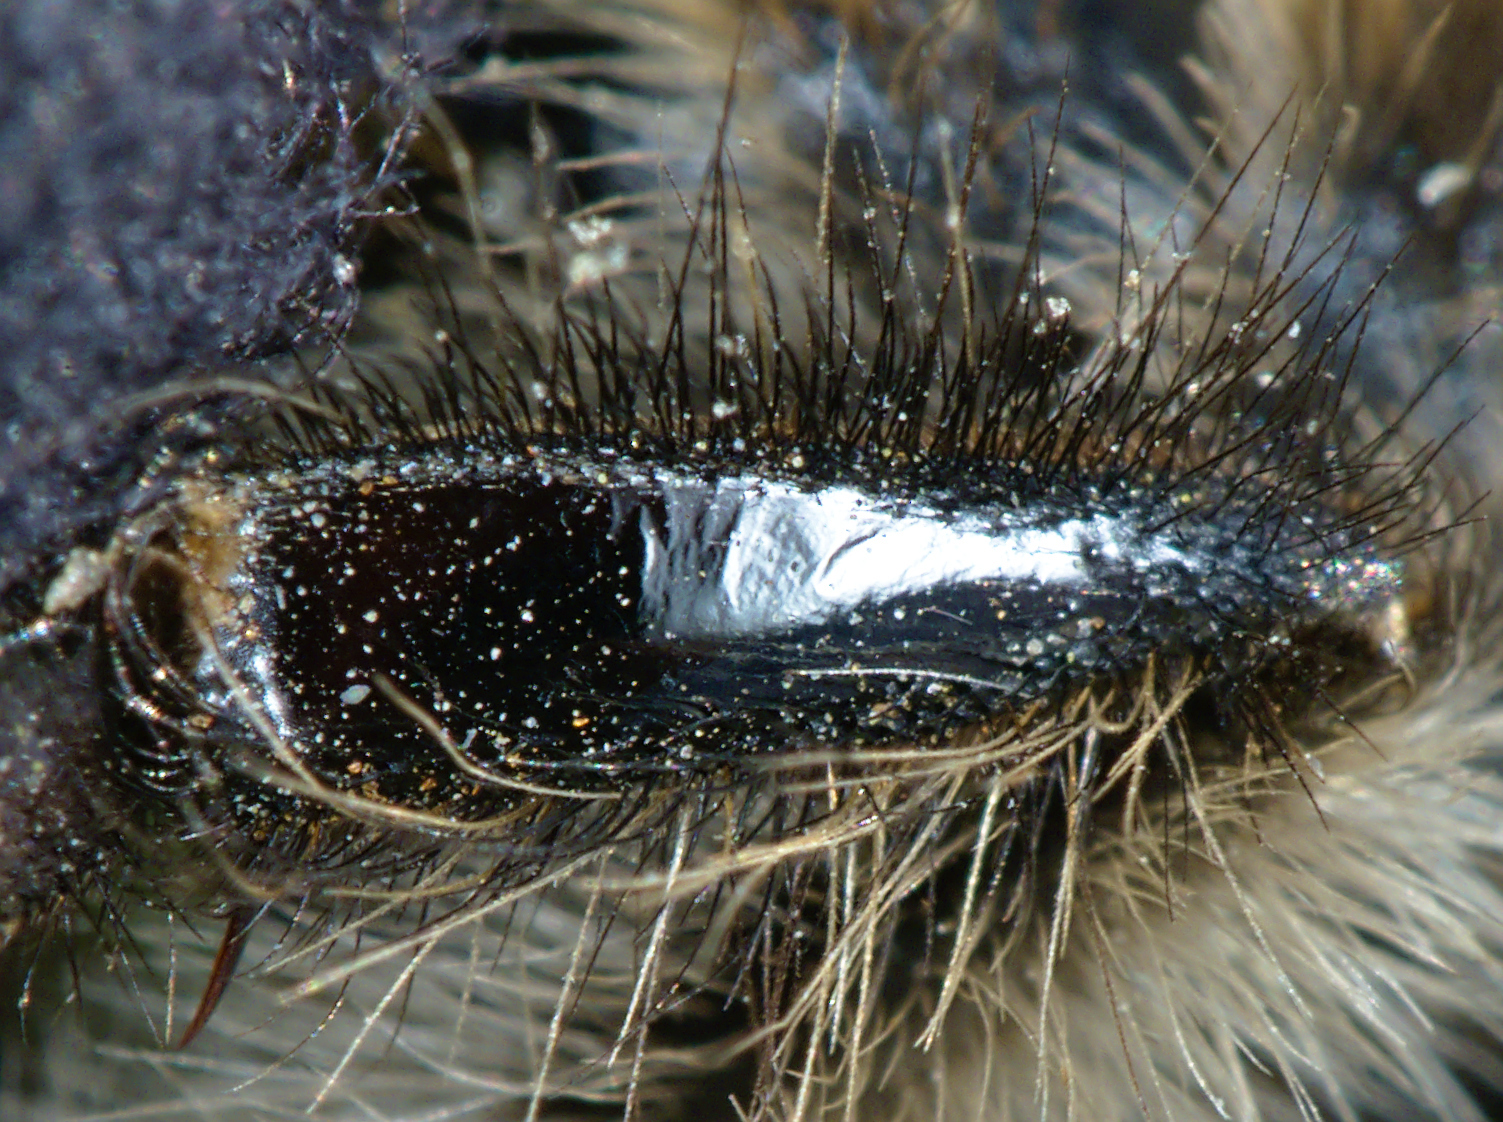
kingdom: Animalia
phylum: Arthropoda
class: Insecta
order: Hymenoptera
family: Apidae
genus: Bombus
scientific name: Bombus pascuorum
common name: Common carder bee
